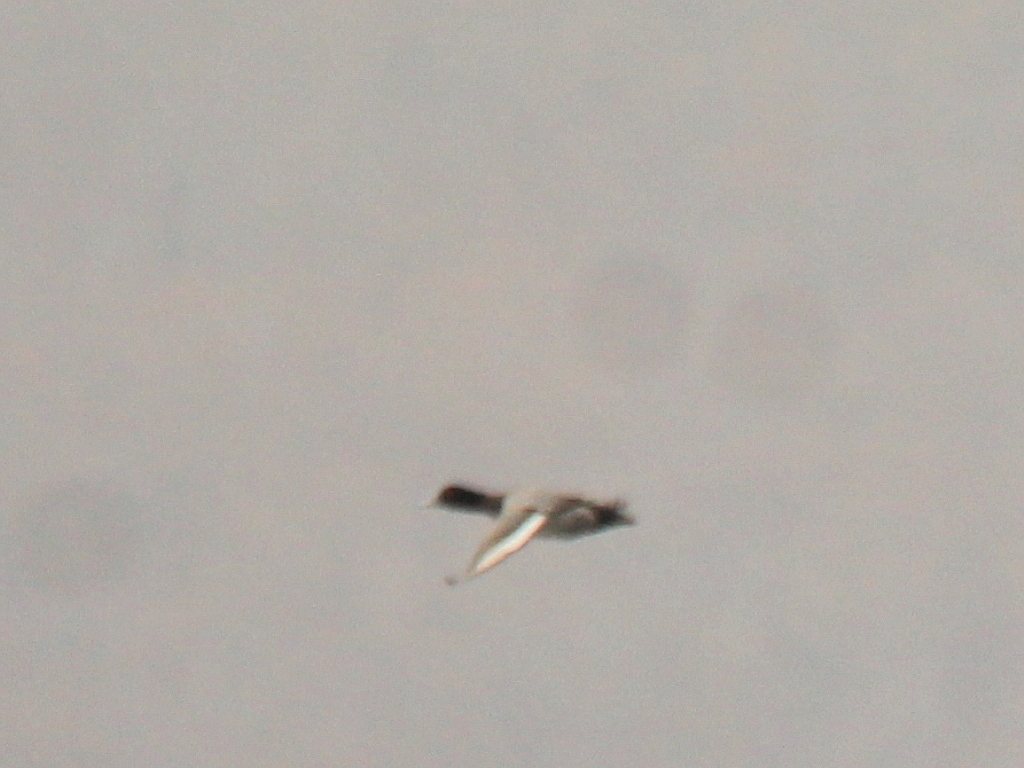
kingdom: Animalia
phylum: Chordata
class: Aves
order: Anseriformes
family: Anatidae
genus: Aythya
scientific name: Aythya marila
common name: Greater scaup
